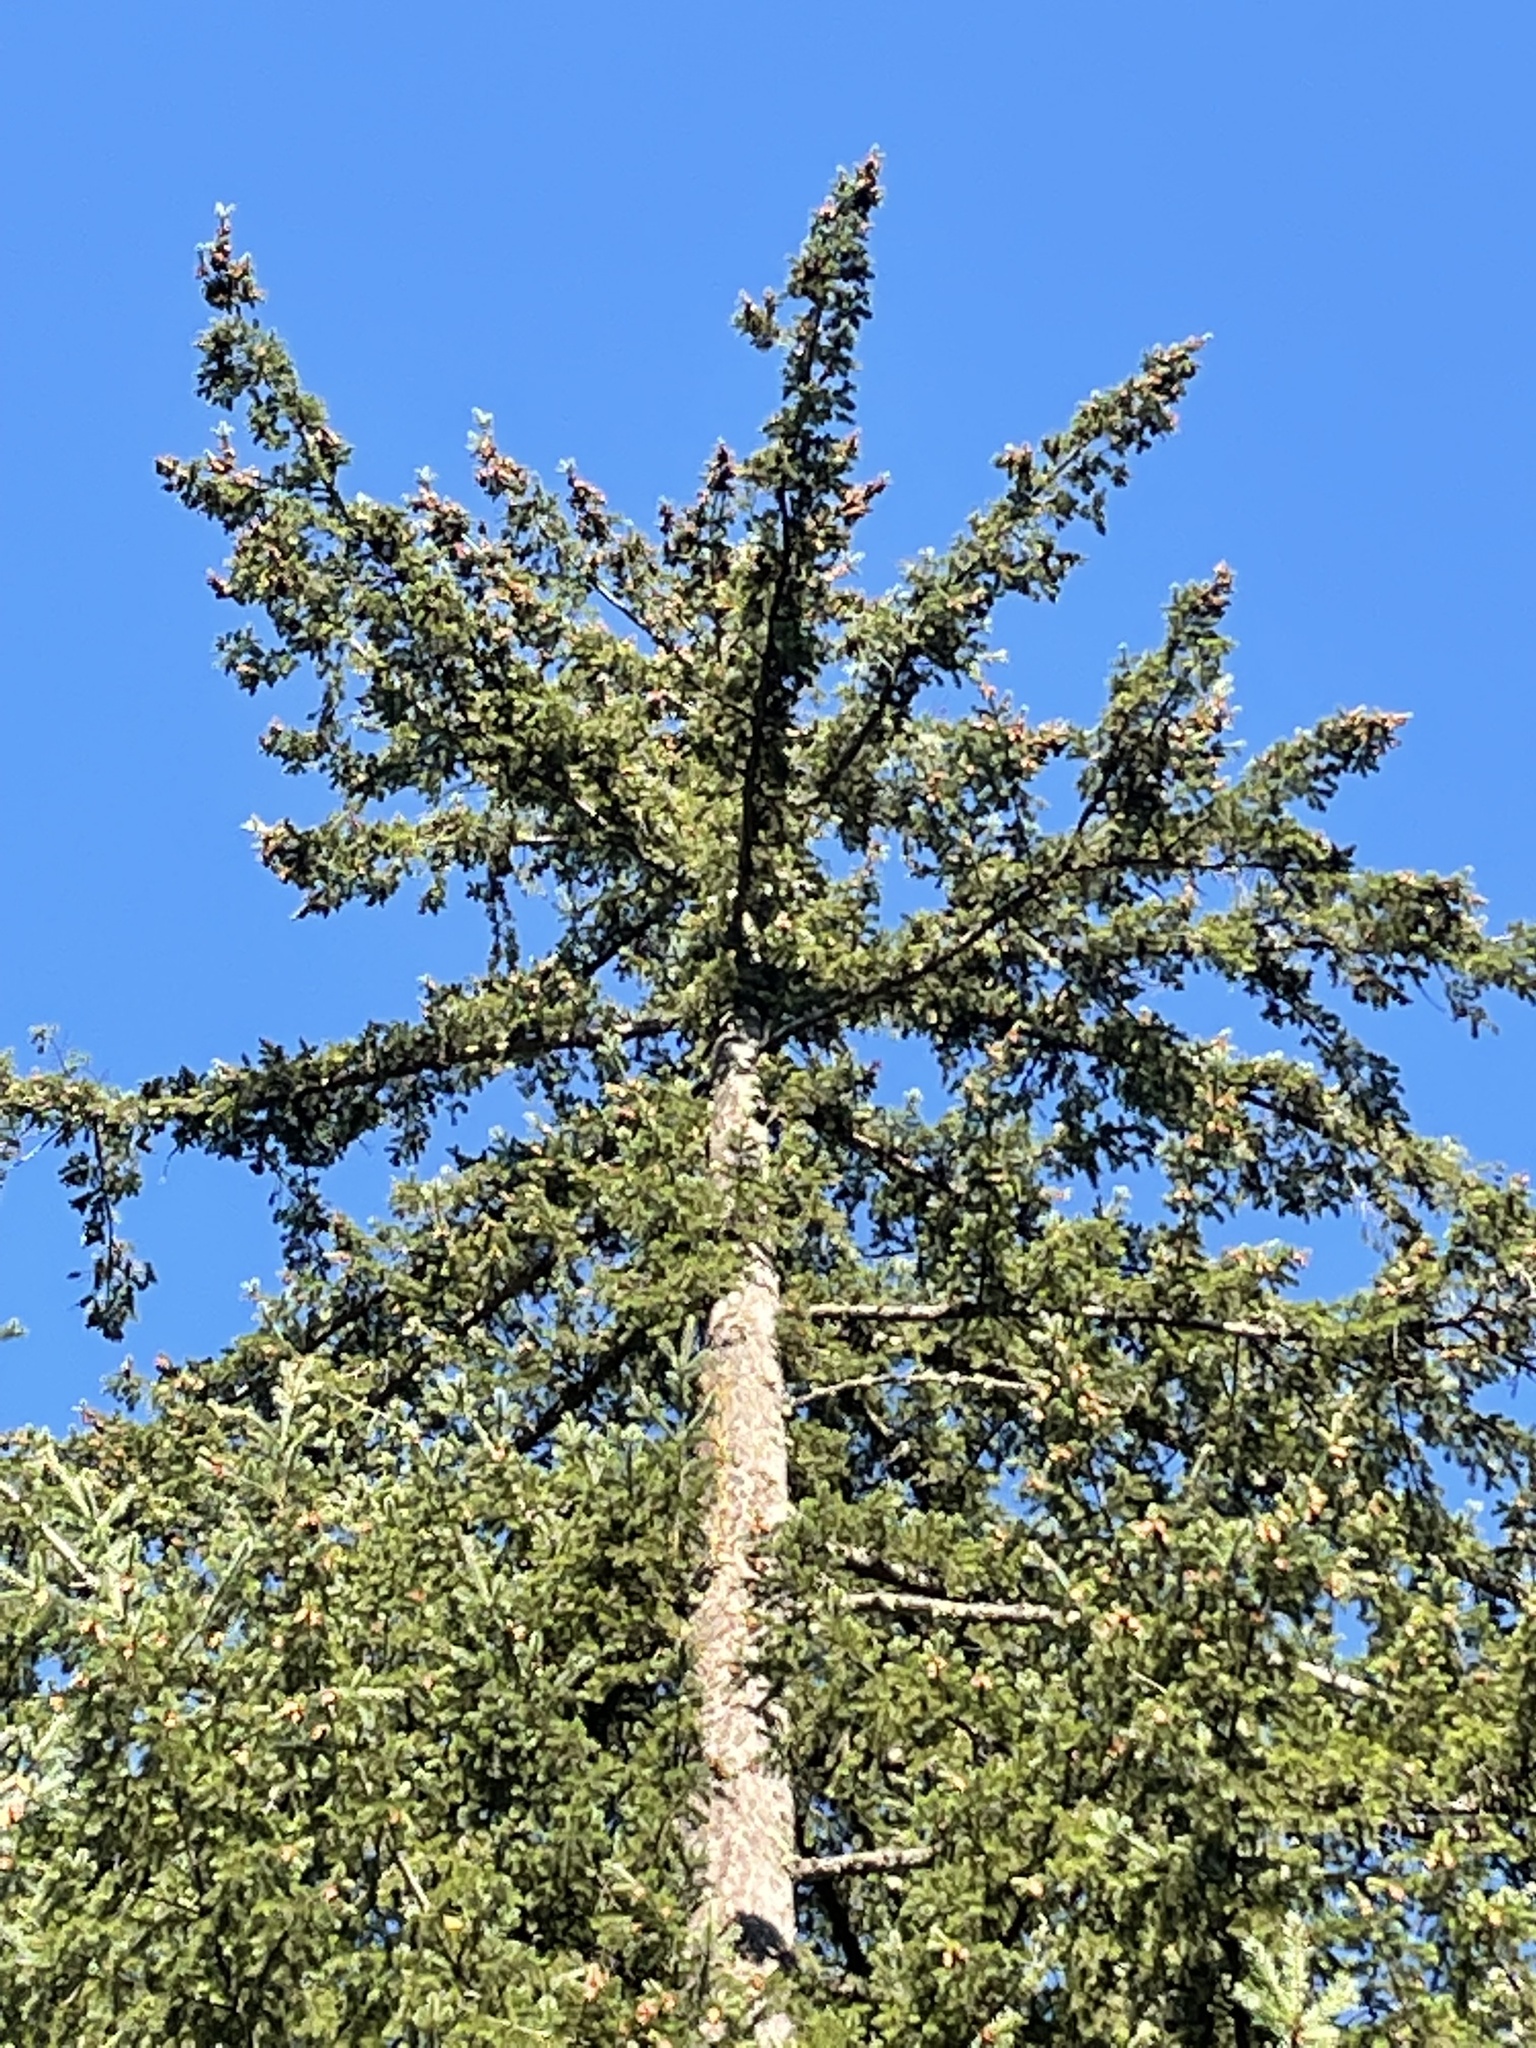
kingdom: Plantae
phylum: Tracheophyta
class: Pinopsida
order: Pinales
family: Pinaceae
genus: Pseudotsuga
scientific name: Pseudotsuga menziesii
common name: Douglas fir
